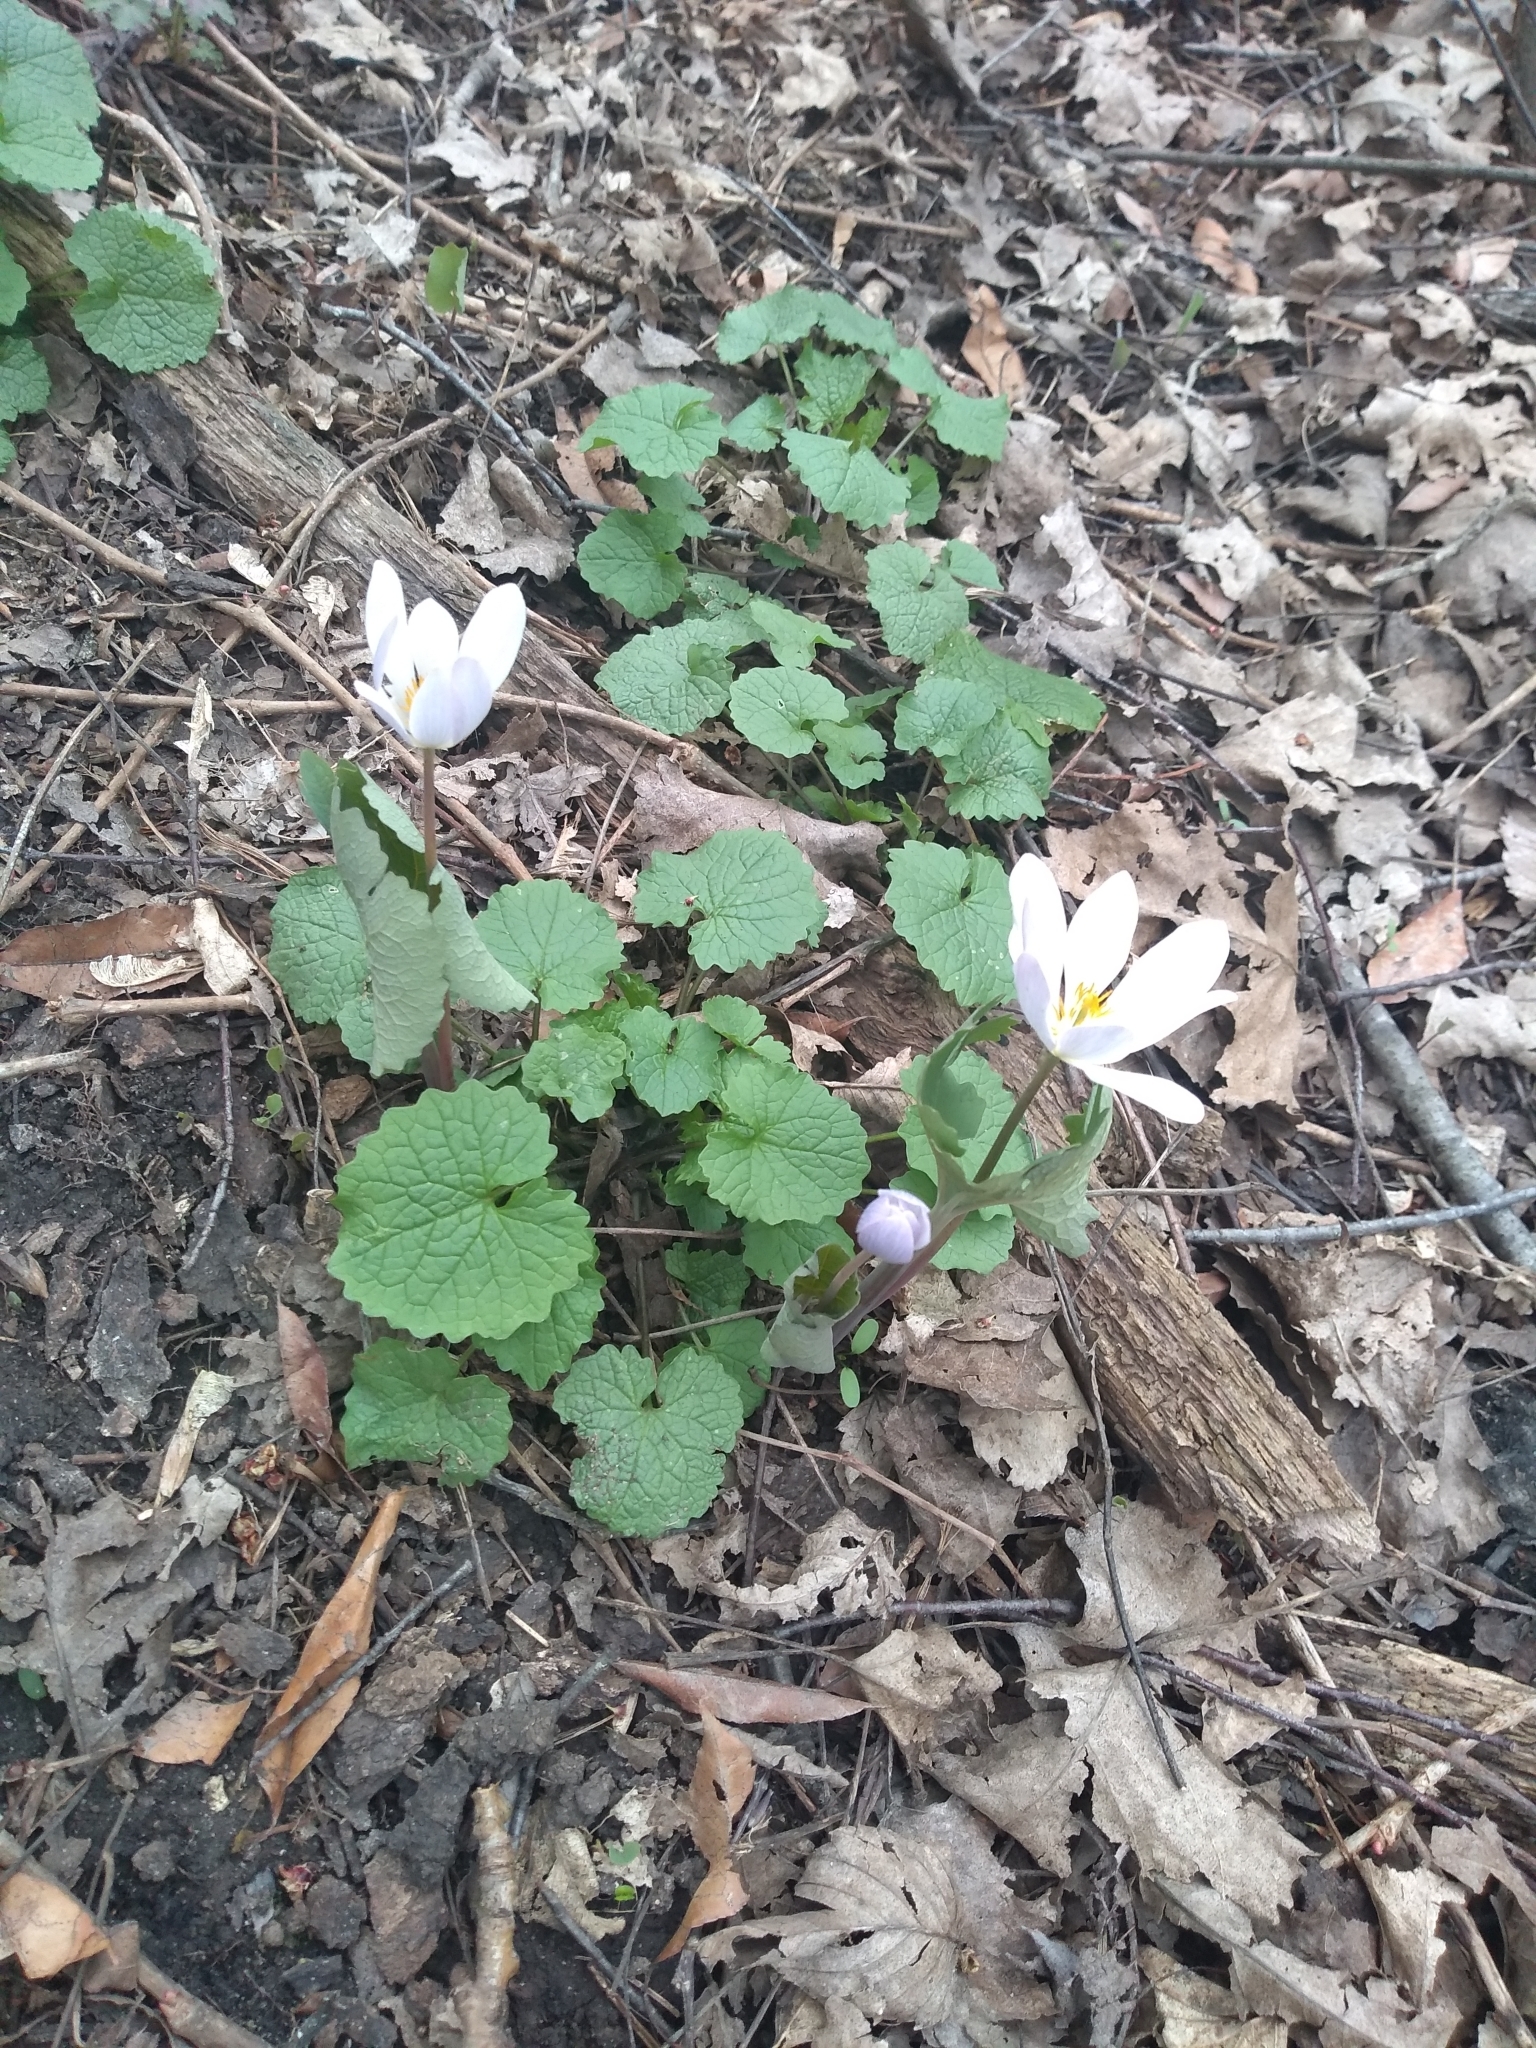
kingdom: Plantae
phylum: Tracheophyta
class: Magnoliopsida
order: Ranunculales
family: Papaveraceae
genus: Sanguinaria
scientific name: Sanguinaria canadensis
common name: Bloodroot
